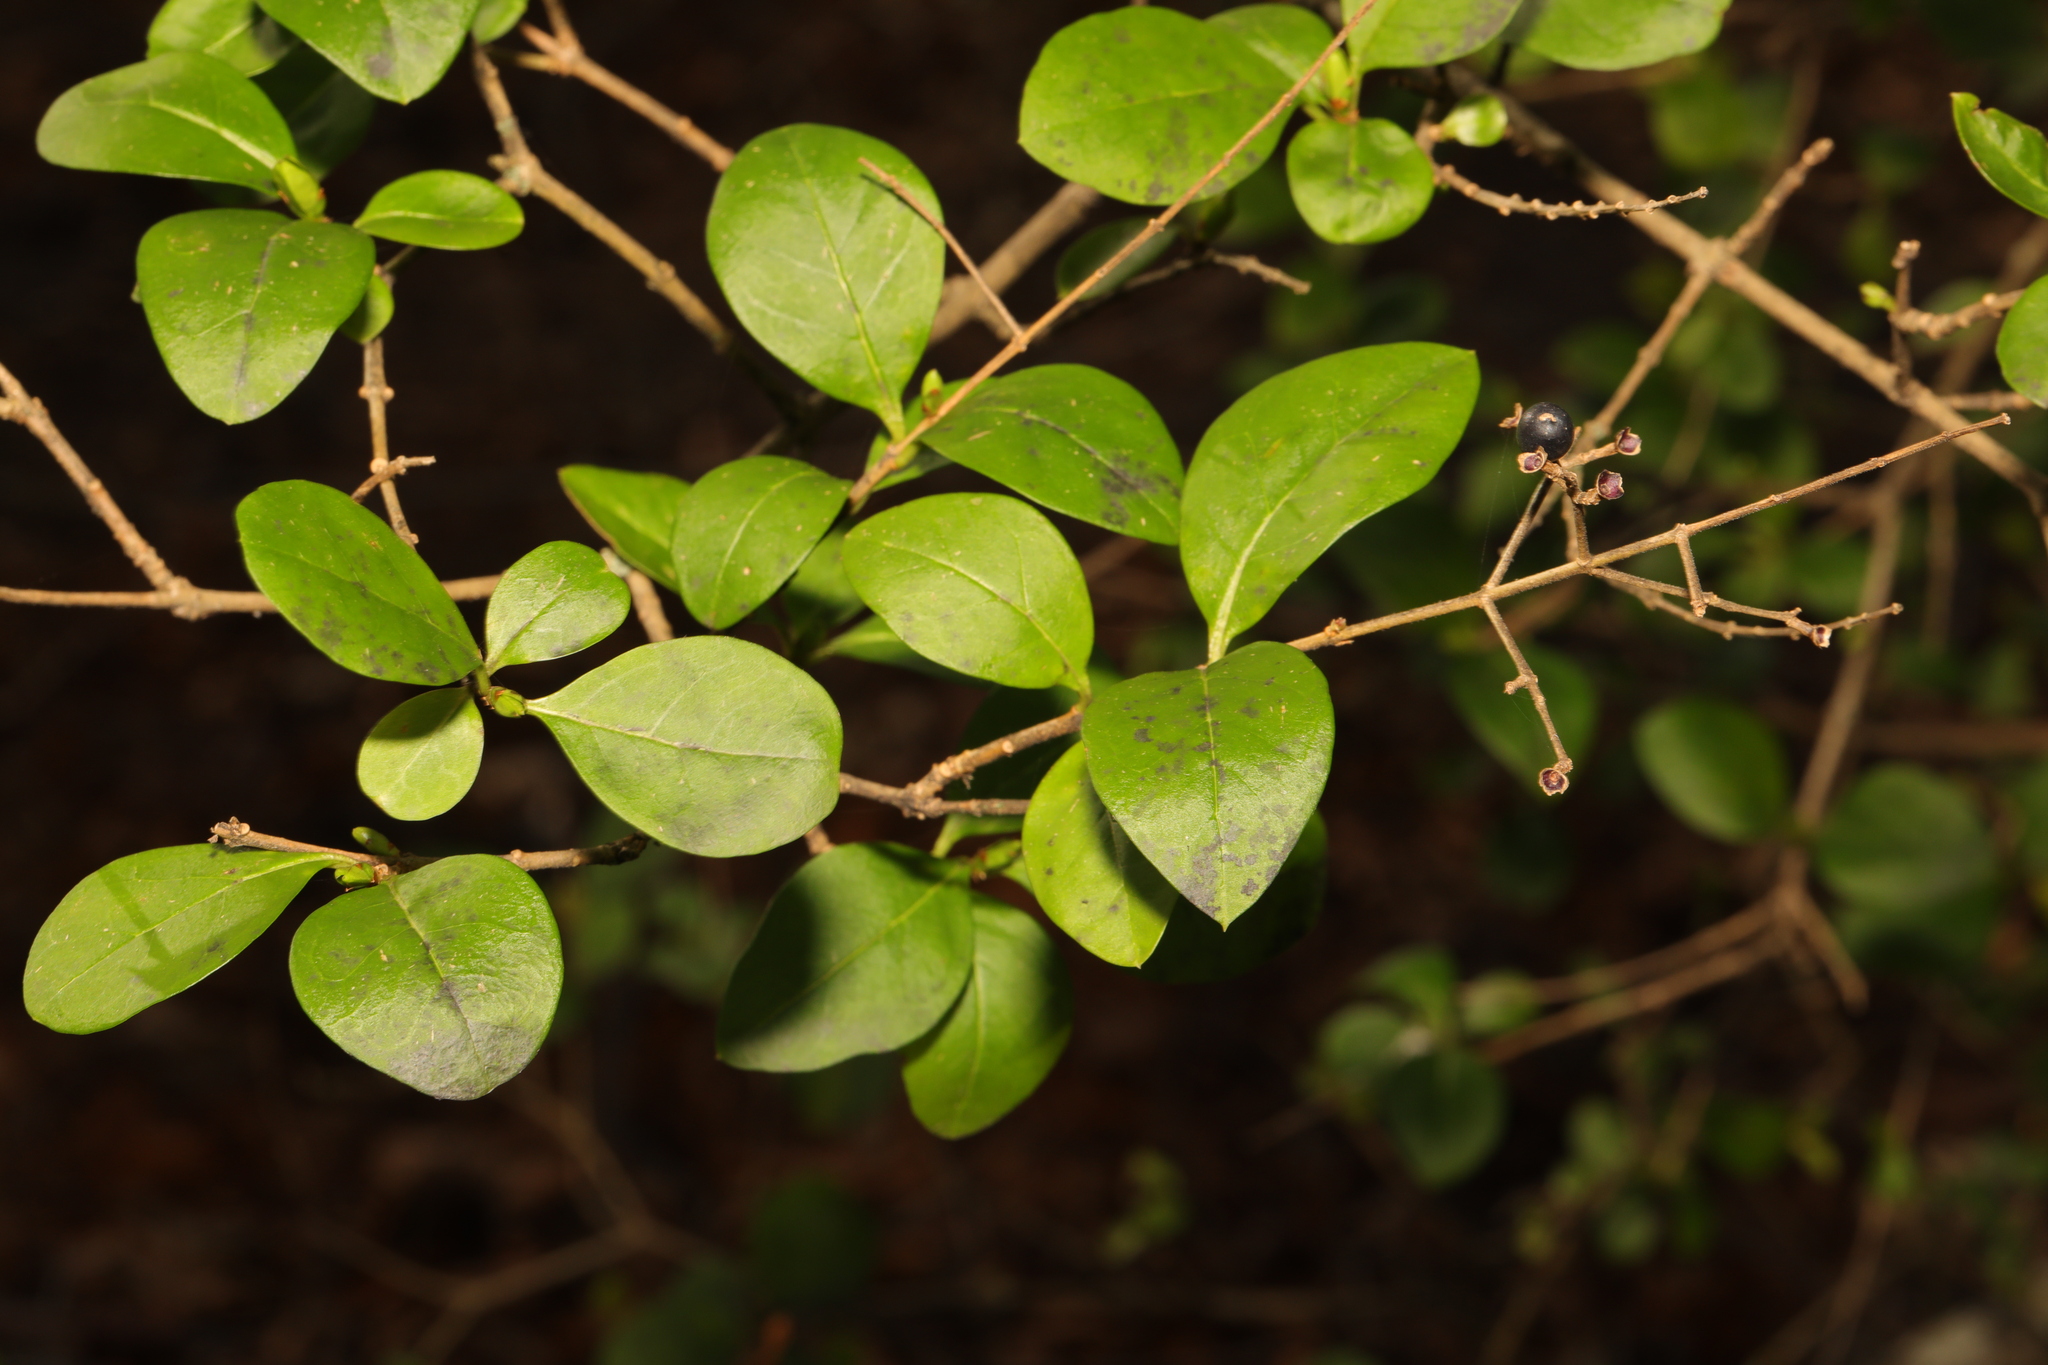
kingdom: Plantae
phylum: Tracheophyta
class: Magnoliopsida
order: Lamiales
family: Oleaceae
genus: Ligustrum
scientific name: Ligustrum ovalifolium
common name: California privet
